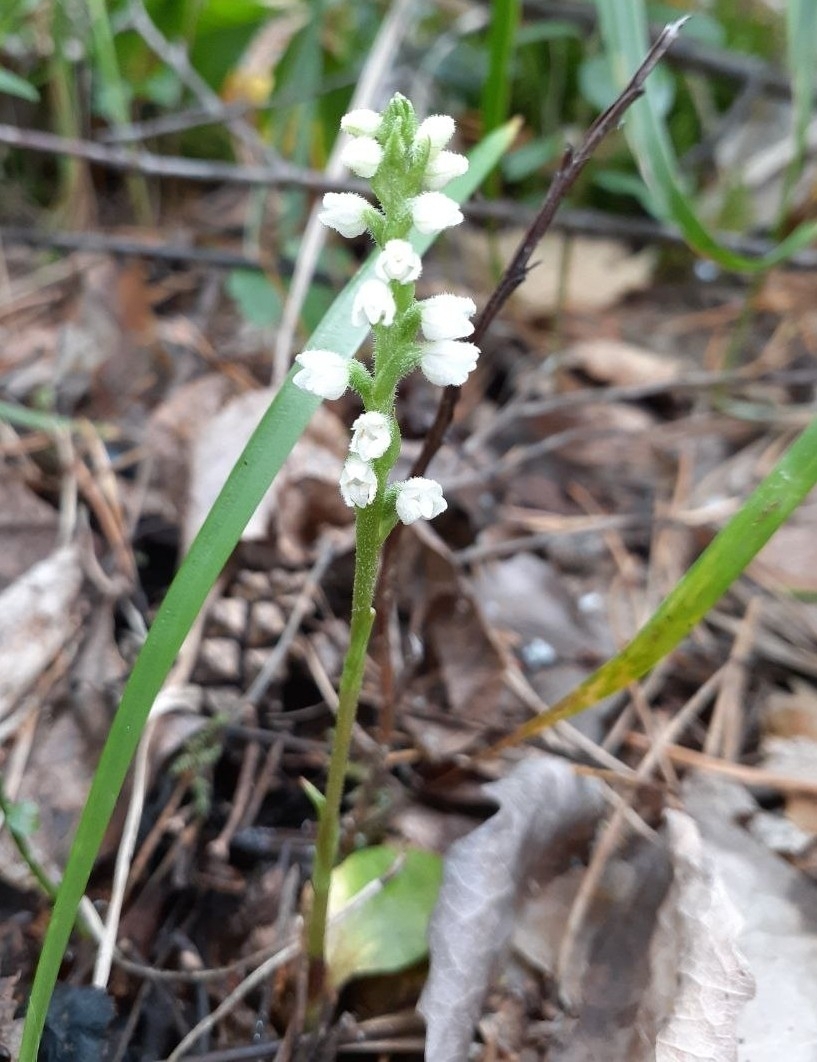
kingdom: Plantae
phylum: Tracheophyta
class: Liliopsida
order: Asparagales
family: Orchidaceae
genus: Goodyera
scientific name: Goodyera repens
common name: Creeping lady's-tresses
